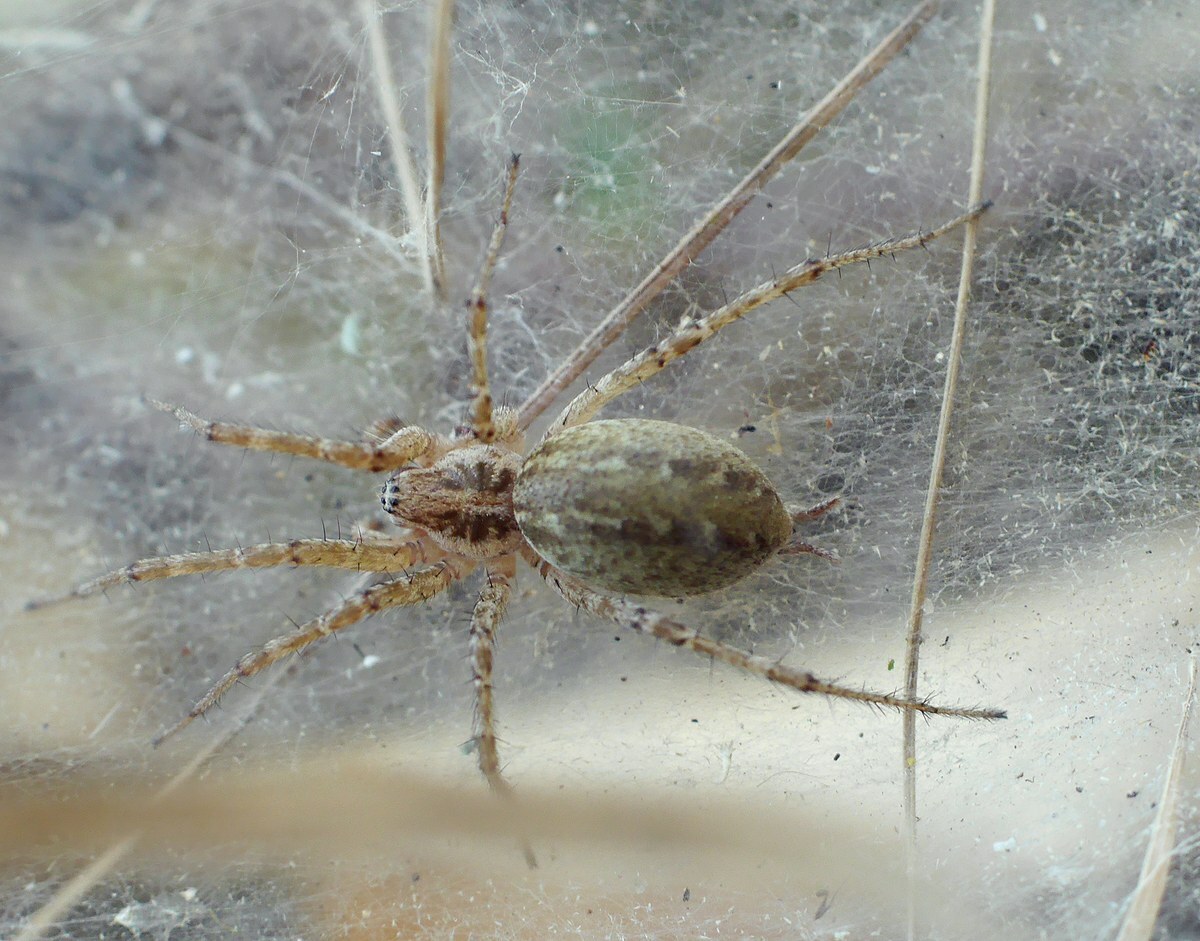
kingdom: Animalia
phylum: Arthropoda
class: Arachnida
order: Araneae
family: Agelenidae
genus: Allagelena
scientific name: Allagelena gracilens
